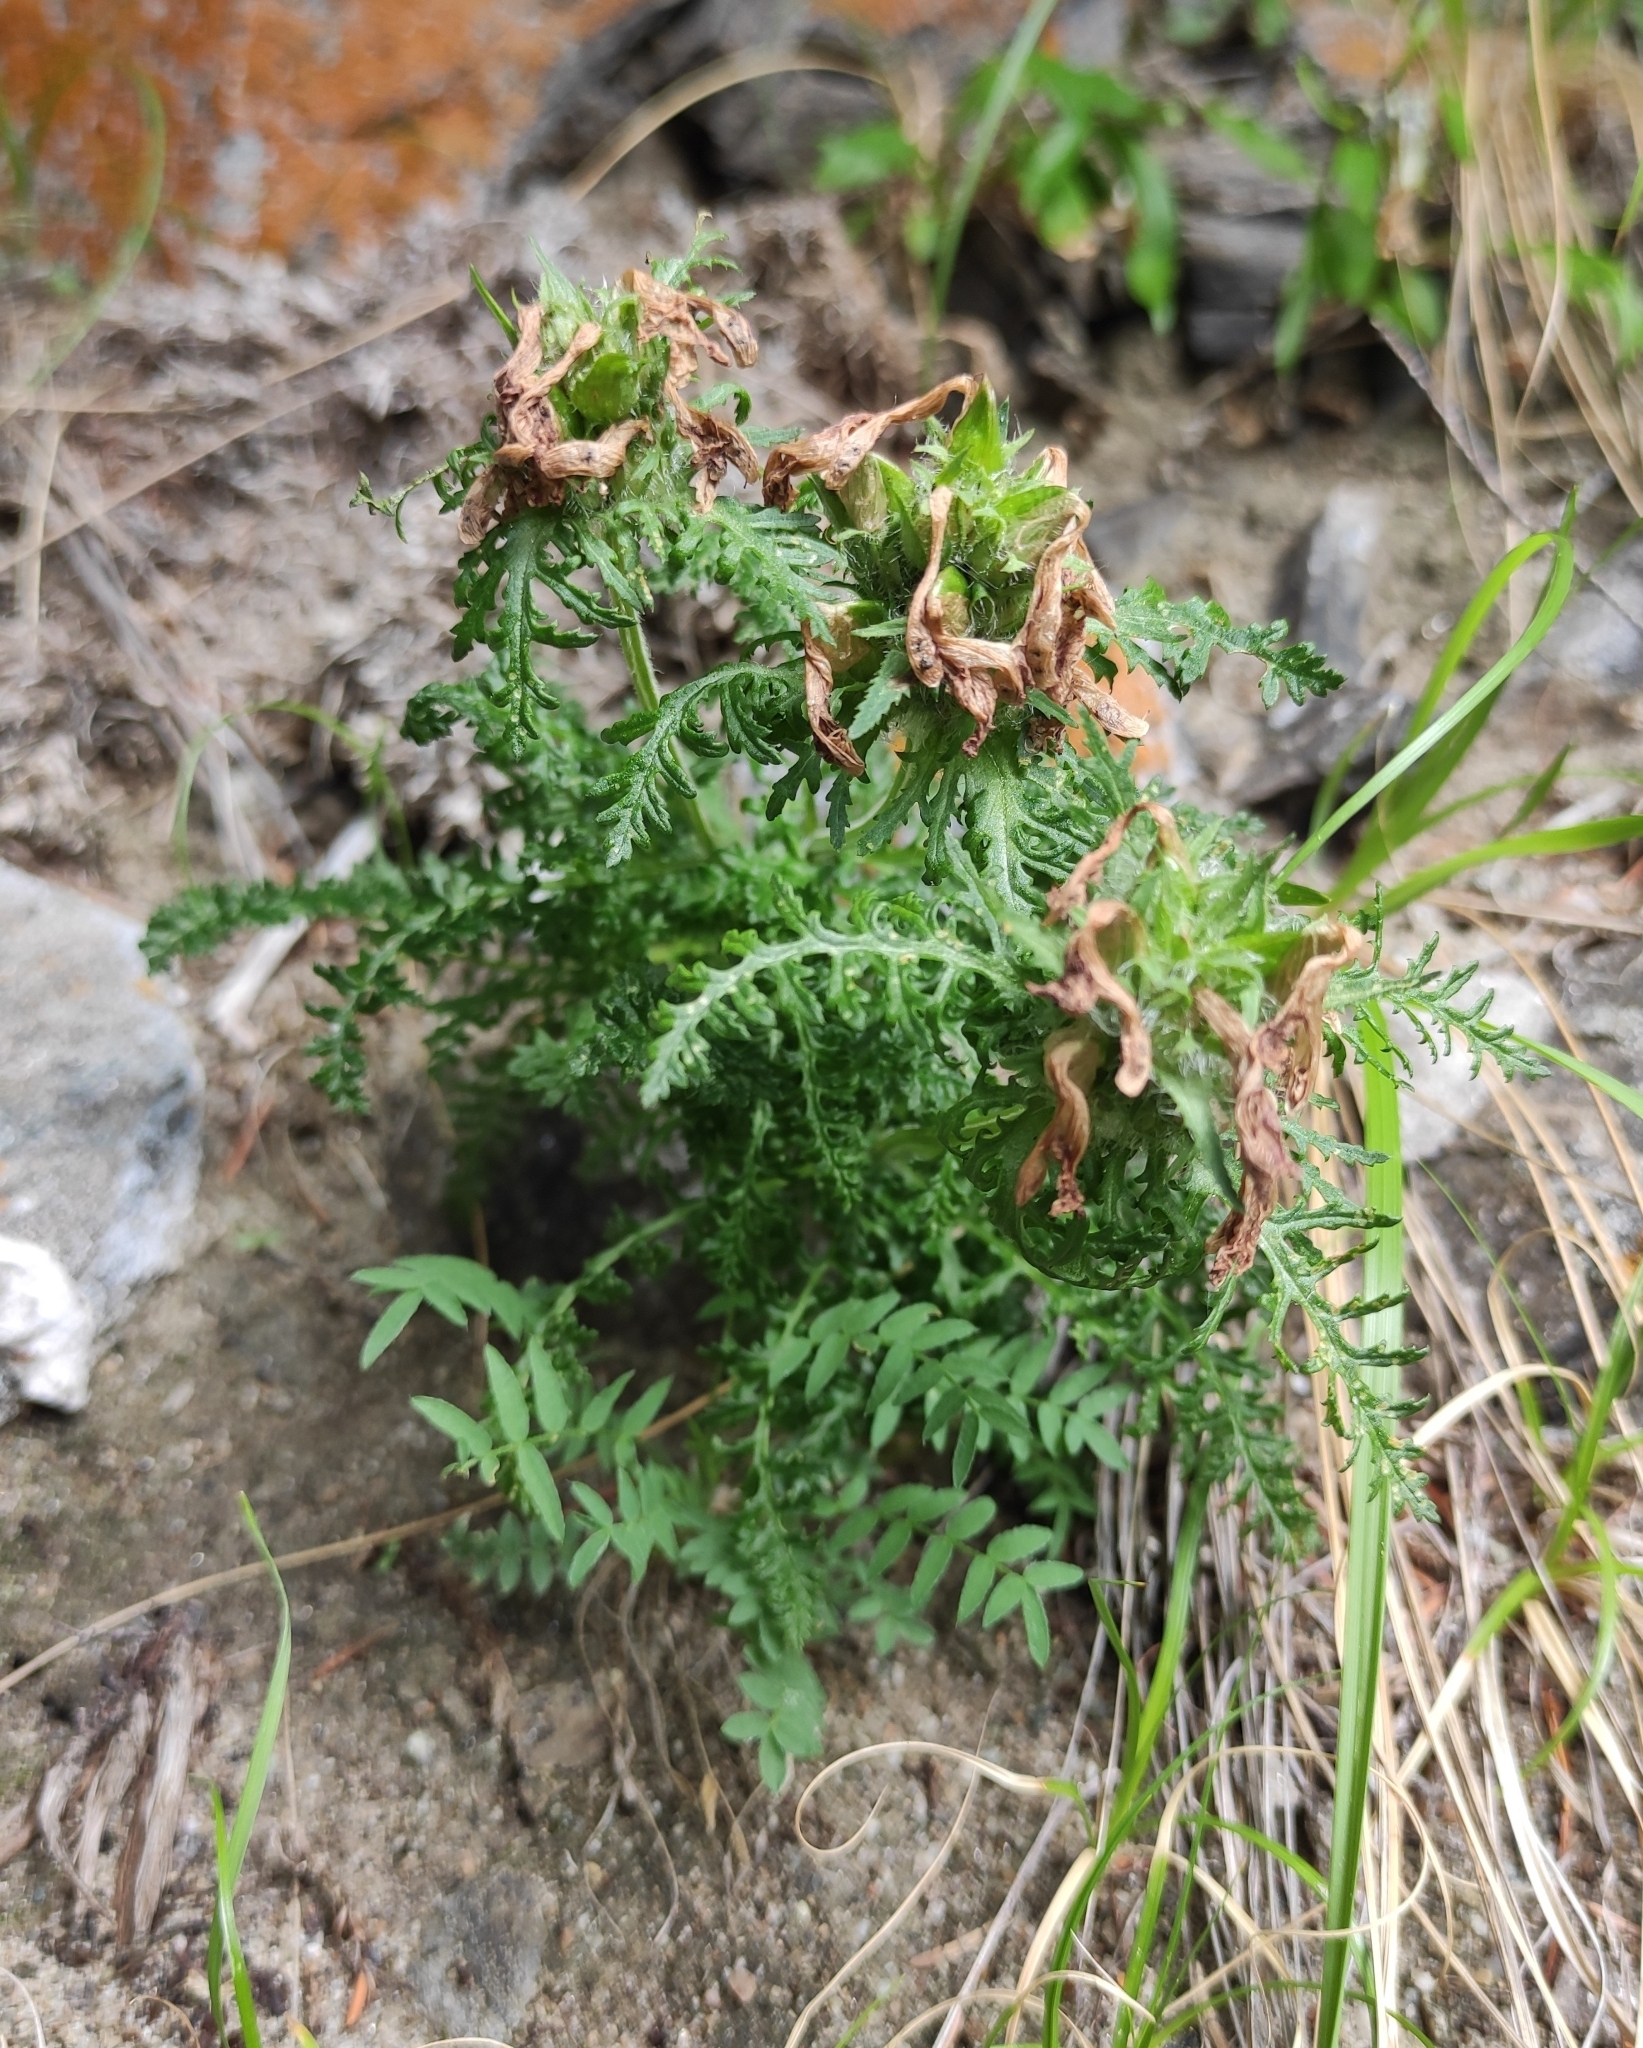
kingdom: Plantae
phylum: Tracheophyta
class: Magnoliopsida
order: Lamiales
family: Orobanchaceae
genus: Pedicularis
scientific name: Pedicularis verticillata
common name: Whorled lousewort
